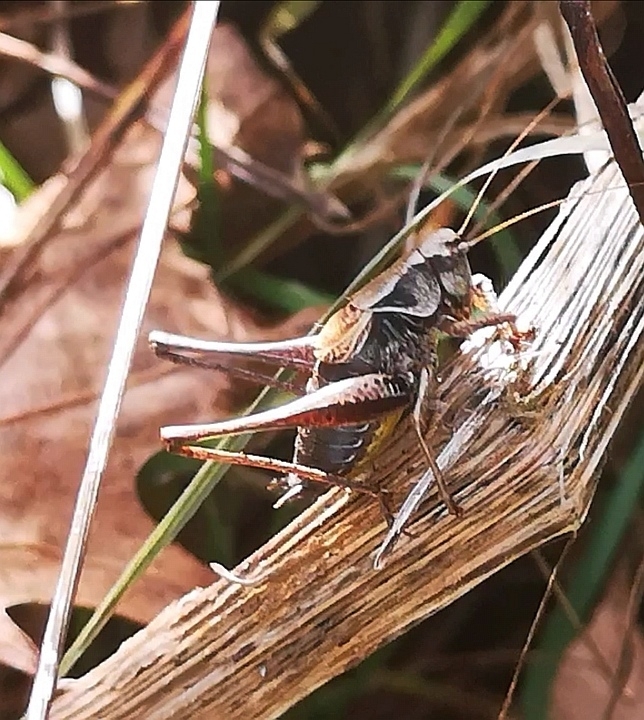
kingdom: Animalia
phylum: Arthropoda
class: Insecta
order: Orthoptera
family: Tettigoniidae
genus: Pholidoptera
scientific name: Pholidoptera griseoaptera
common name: Dark bush-cricket
